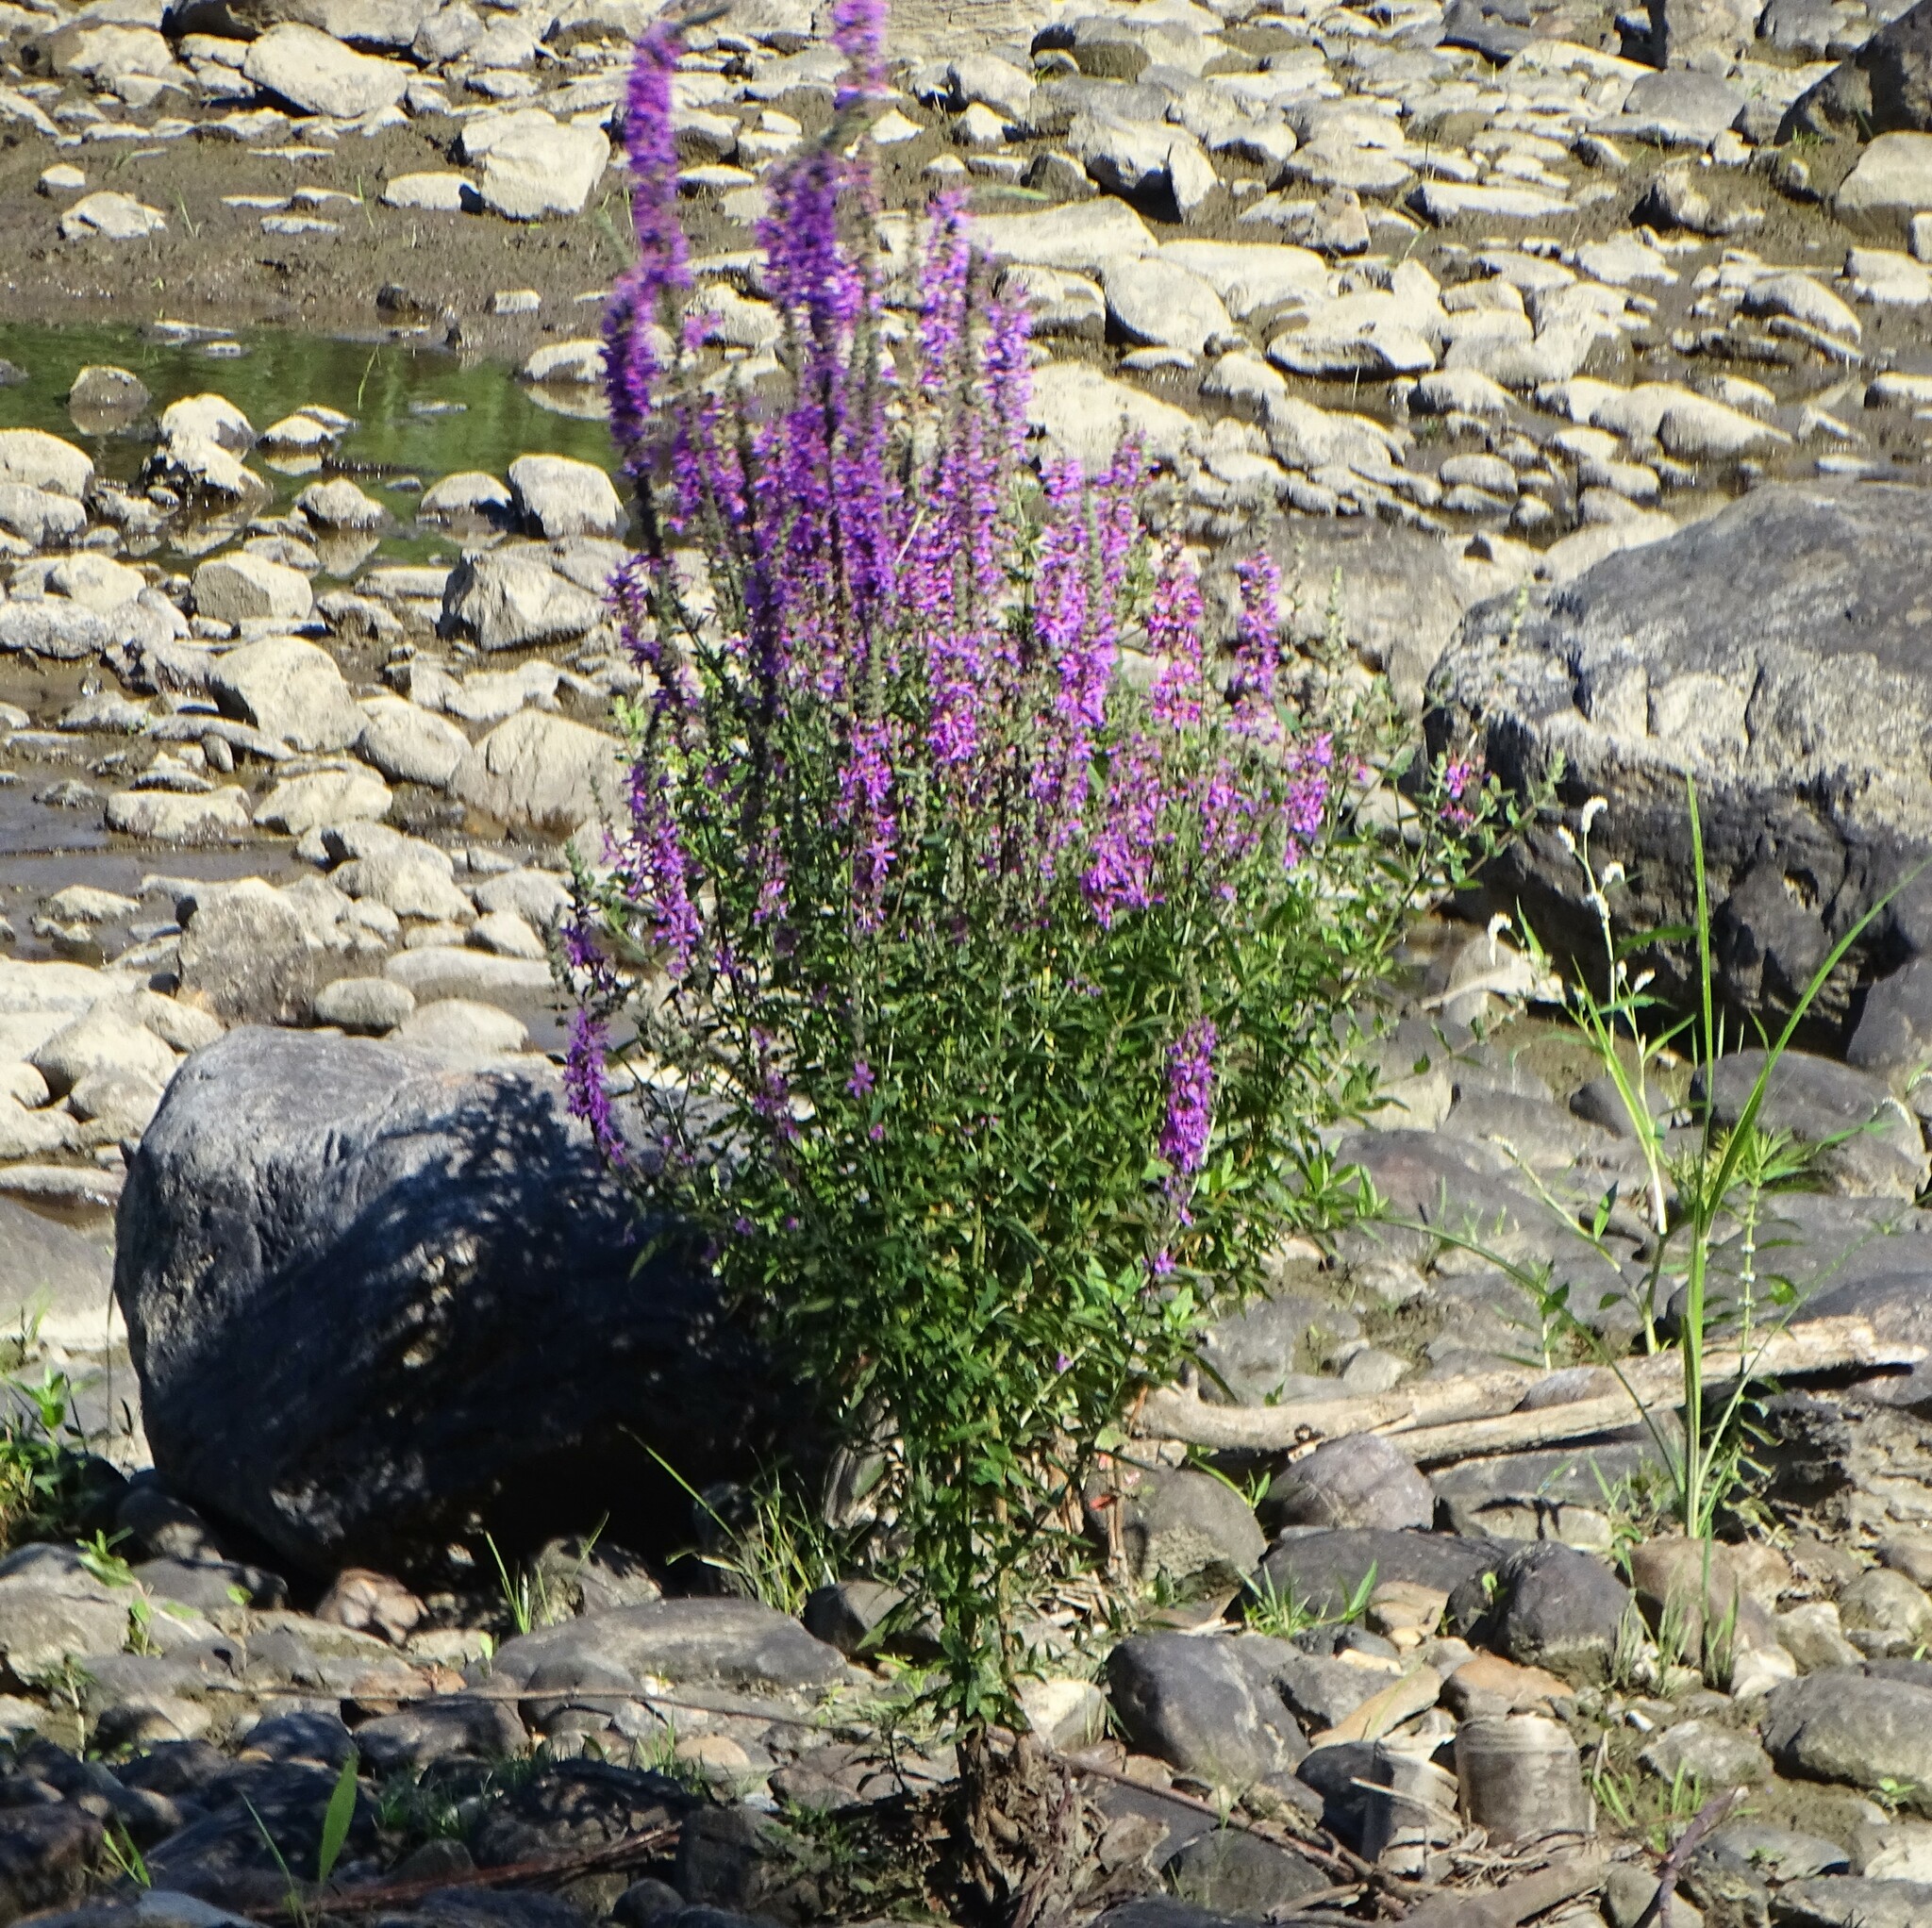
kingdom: Plantae
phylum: Tracheophyta
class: Magnoliopsida
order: Myrtales
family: Lythraceae
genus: Lythrum
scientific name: Lythrum salicaria
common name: Purple loosestrife
